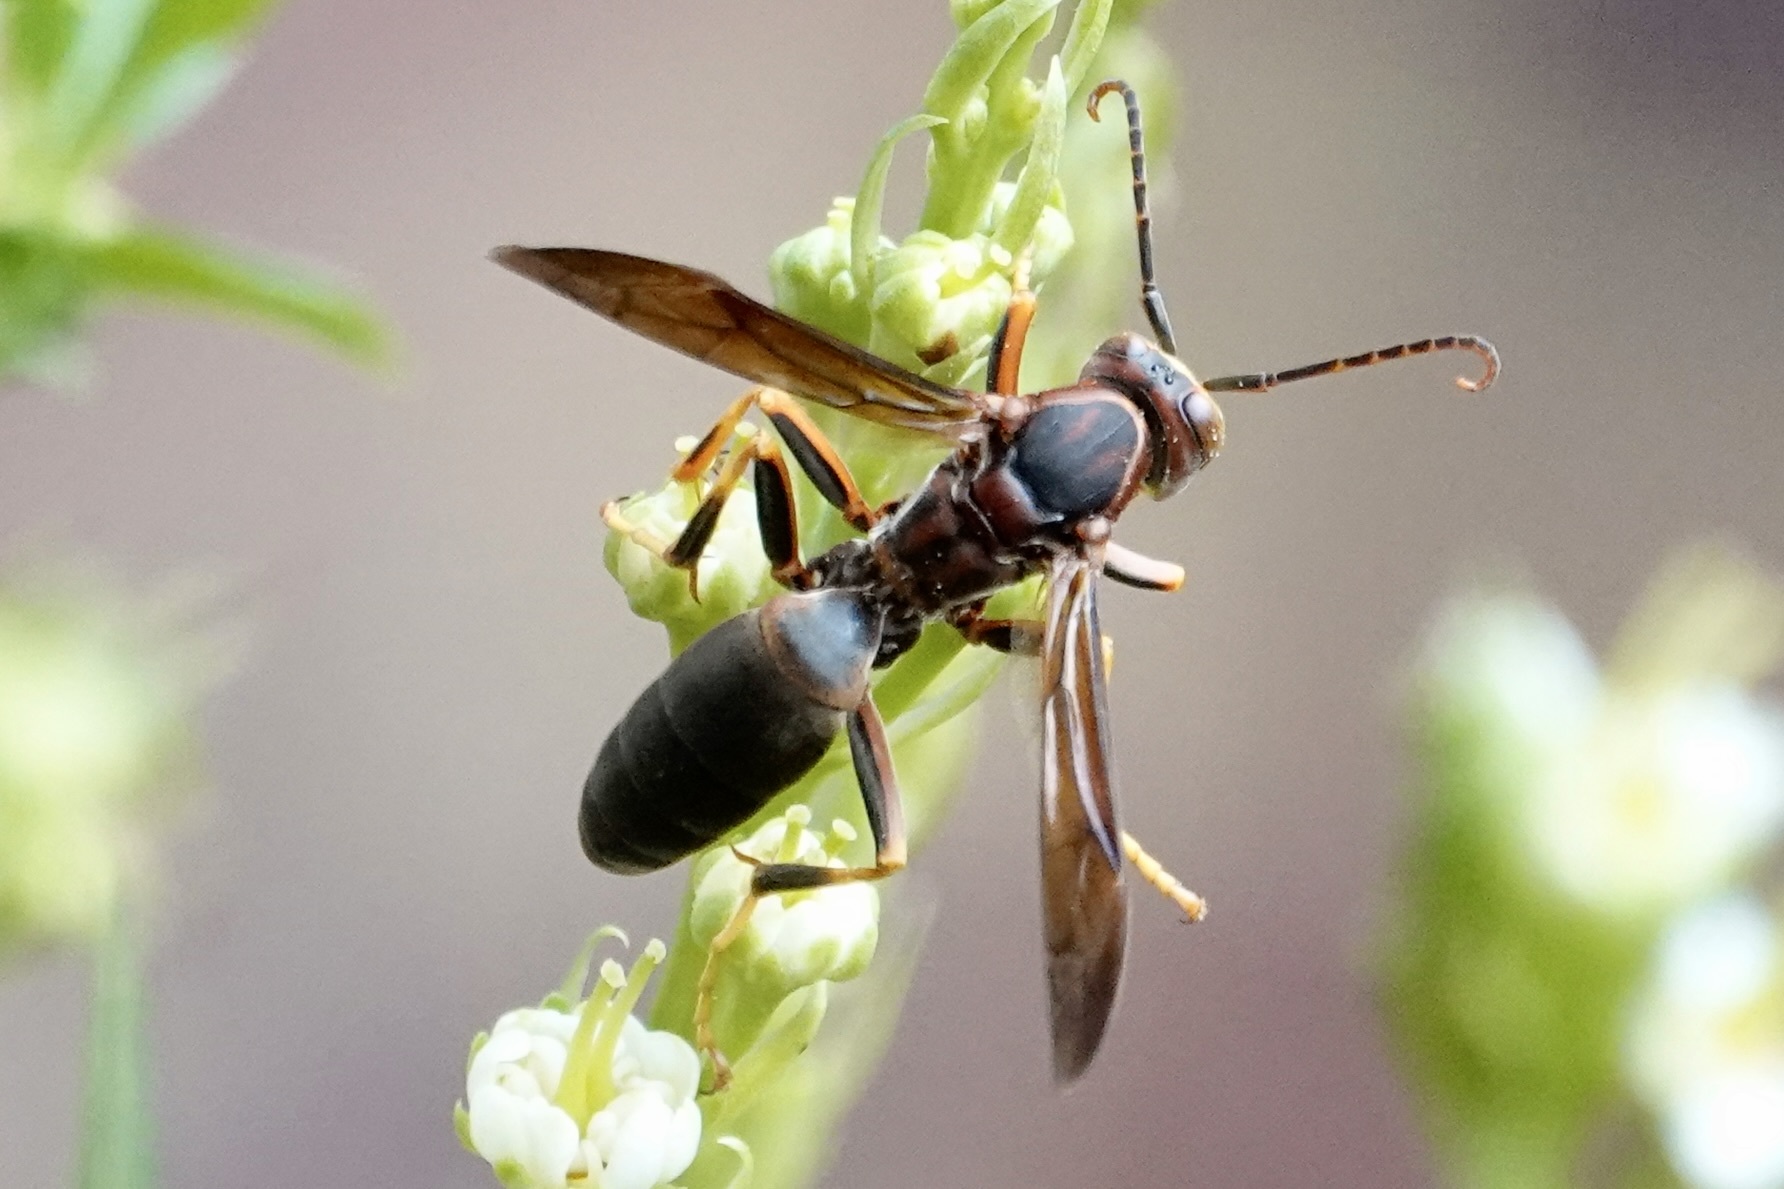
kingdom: Animalia
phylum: Arthropoda
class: Insecta
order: Hymenoptera
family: Eumenidae
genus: Polistes
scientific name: Polistes metricus
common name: Metric paper wasp
